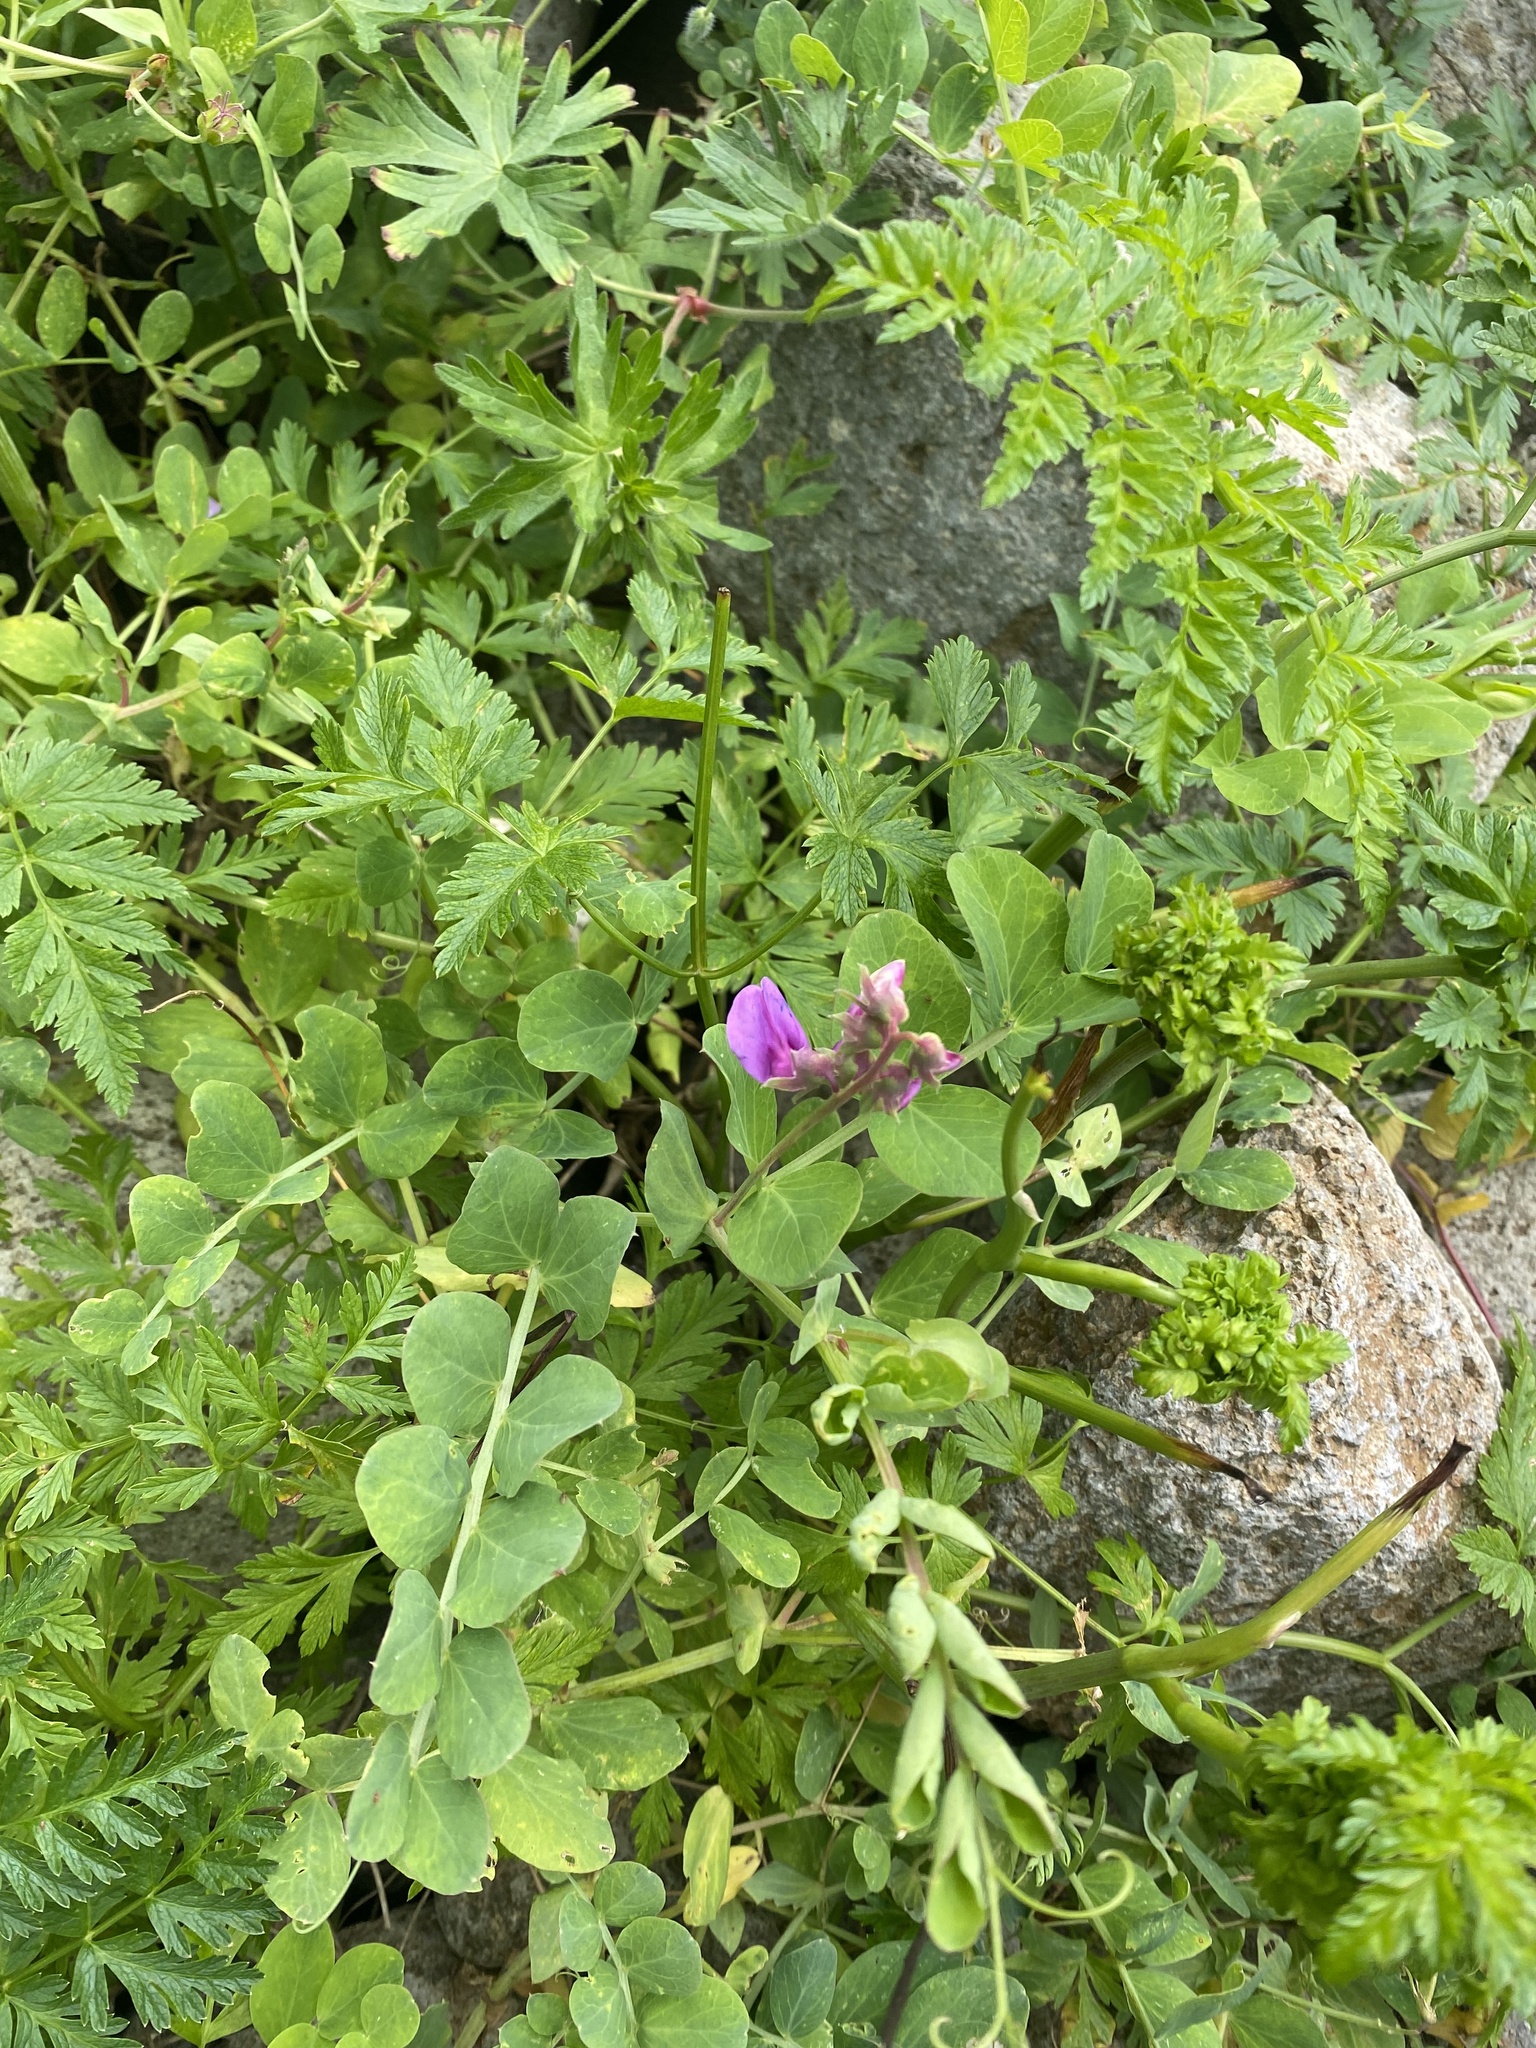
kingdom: Plantae
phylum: Tracheophyta
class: Magnoliopsida
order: Fabales
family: Fabaceae
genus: Lathyrus
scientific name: Lathyrus japonicus
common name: Sea pea
